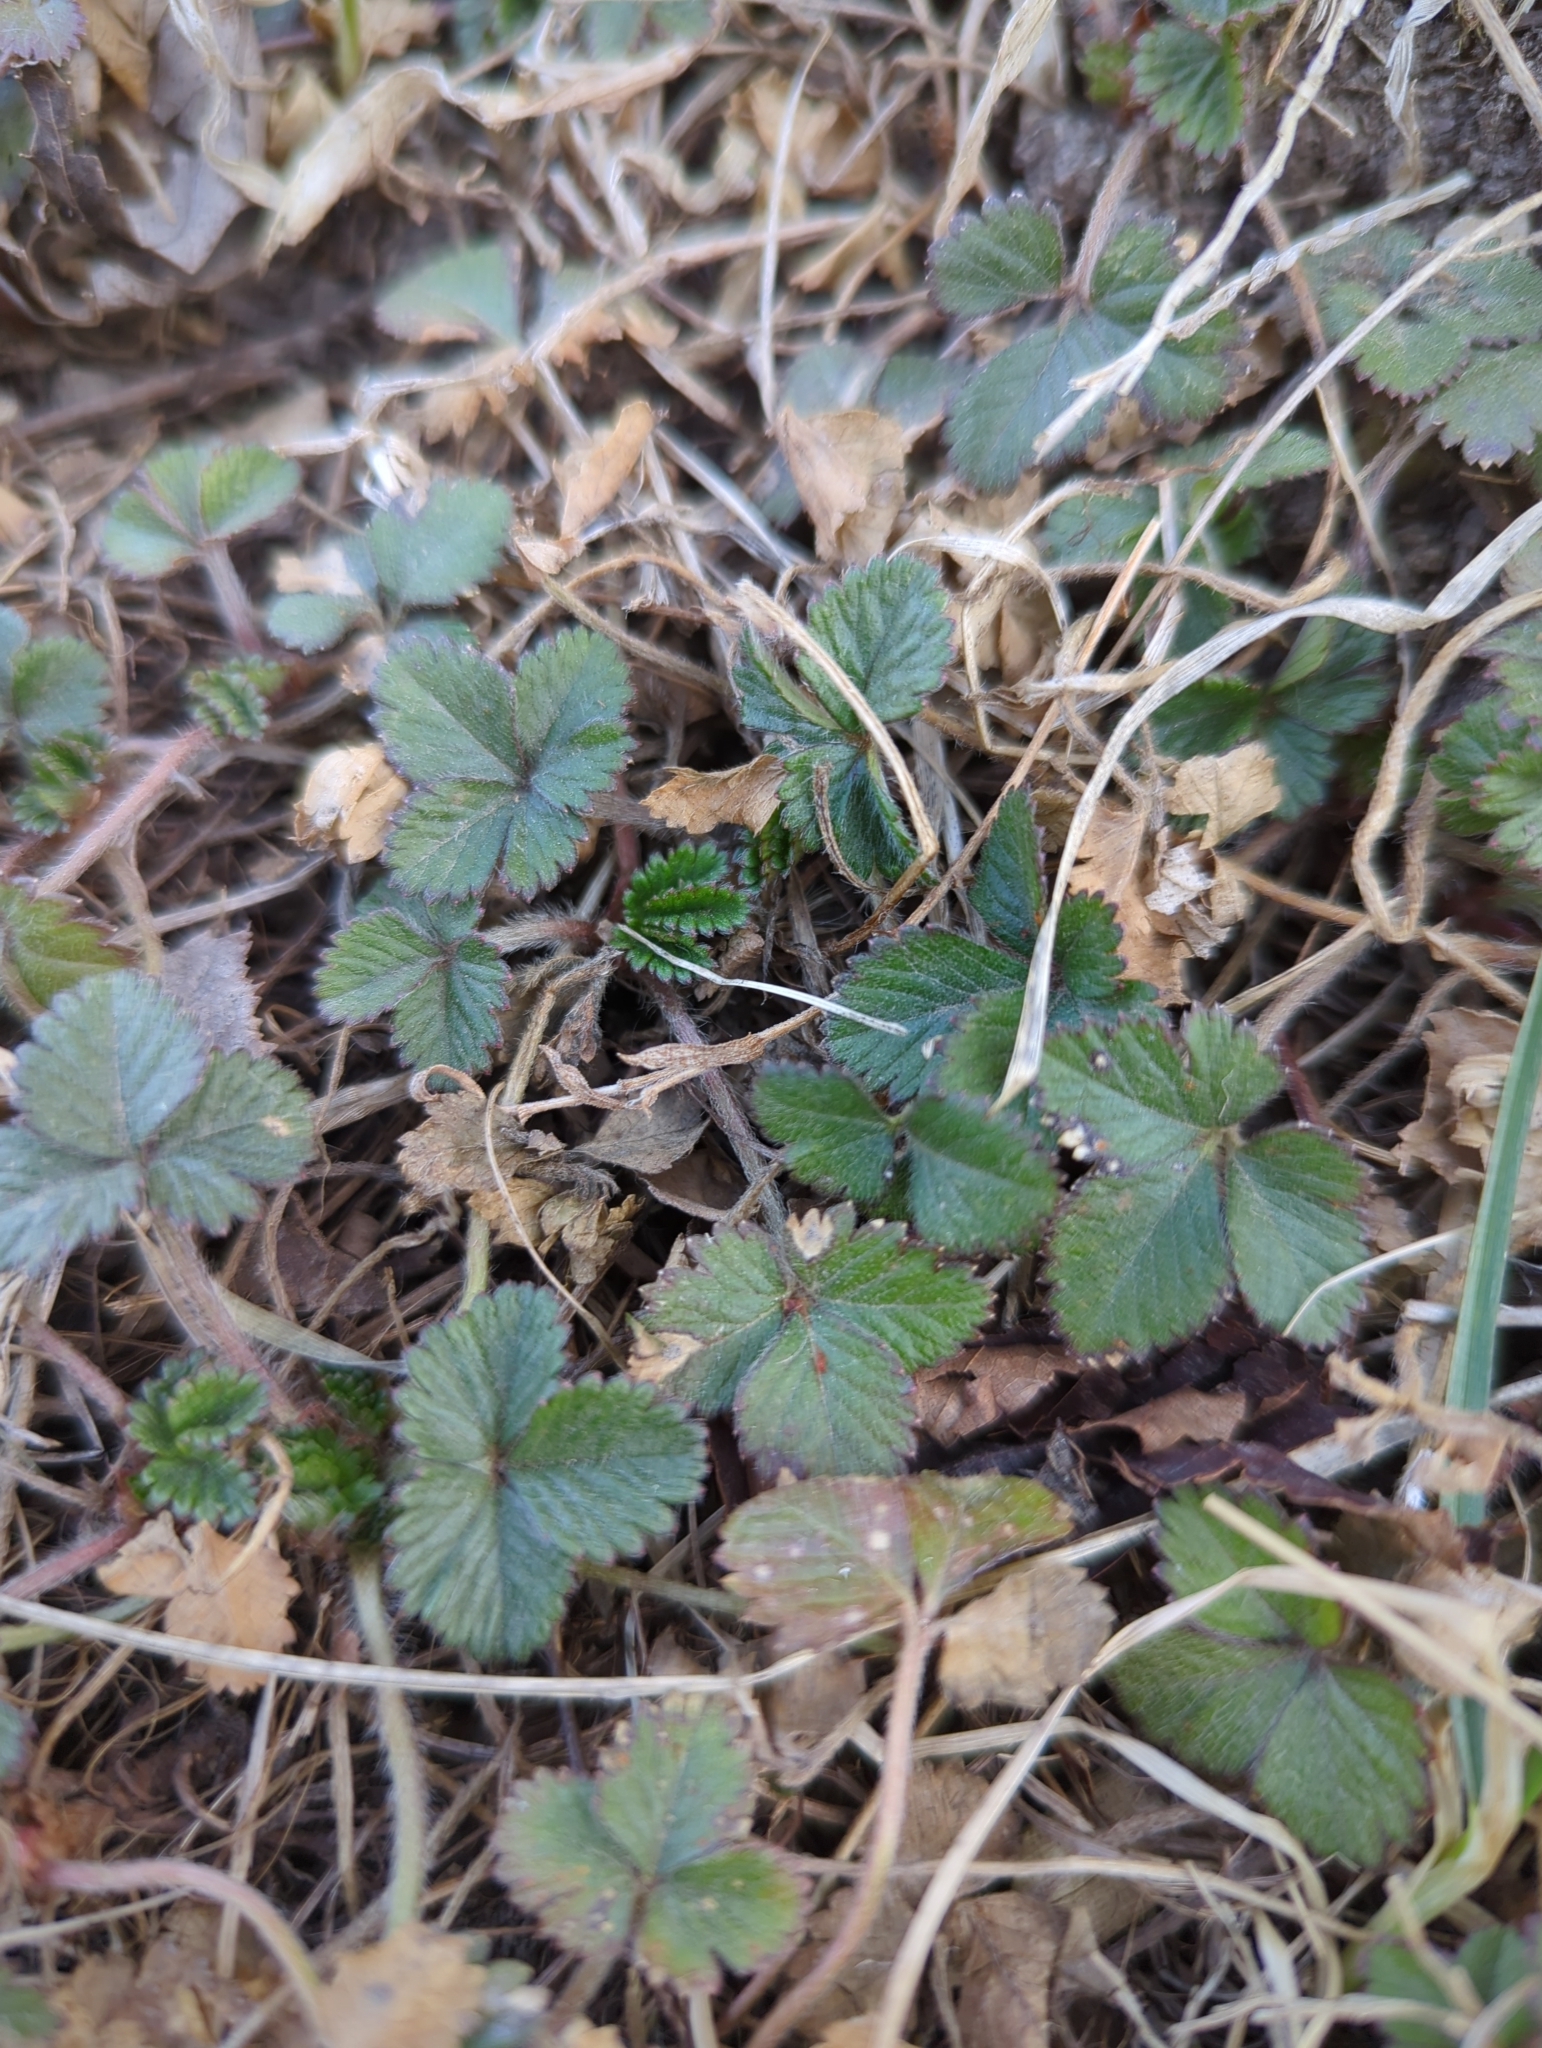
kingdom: Plantae
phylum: Tracheophyta
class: Magnoliopsida
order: Rosales
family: Rosaceae
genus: Potentilla
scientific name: Potentilla indica
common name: Yellow-flowered strawberry
